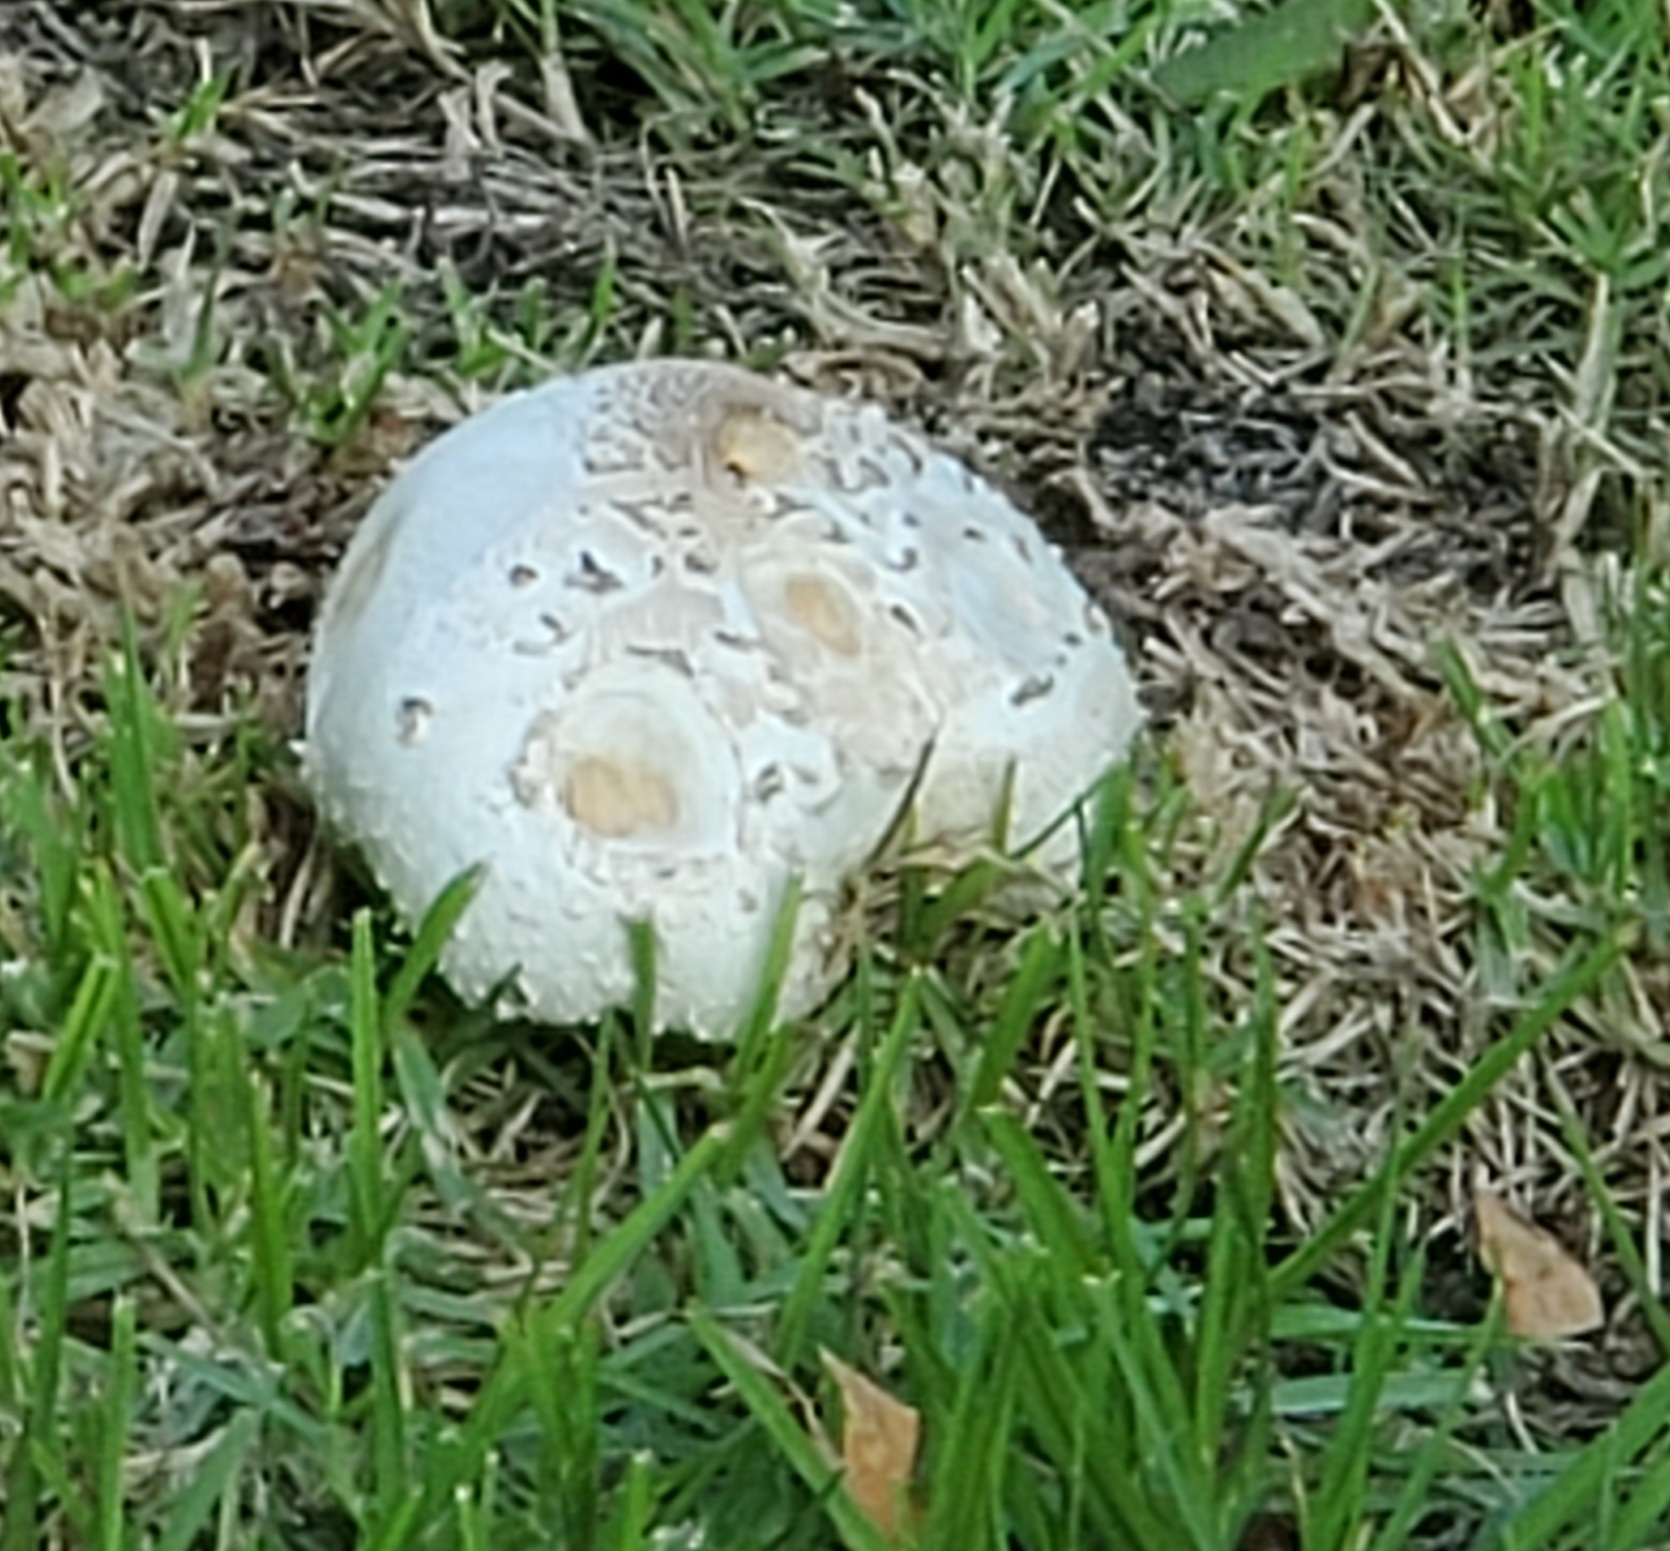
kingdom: Fungi
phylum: Basidiomycota
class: Agaricomycetes
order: Agaricales
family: Agaricaceae
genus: Chlorophyllum
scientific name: Chlorophyllum molybdites
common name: False parasol
